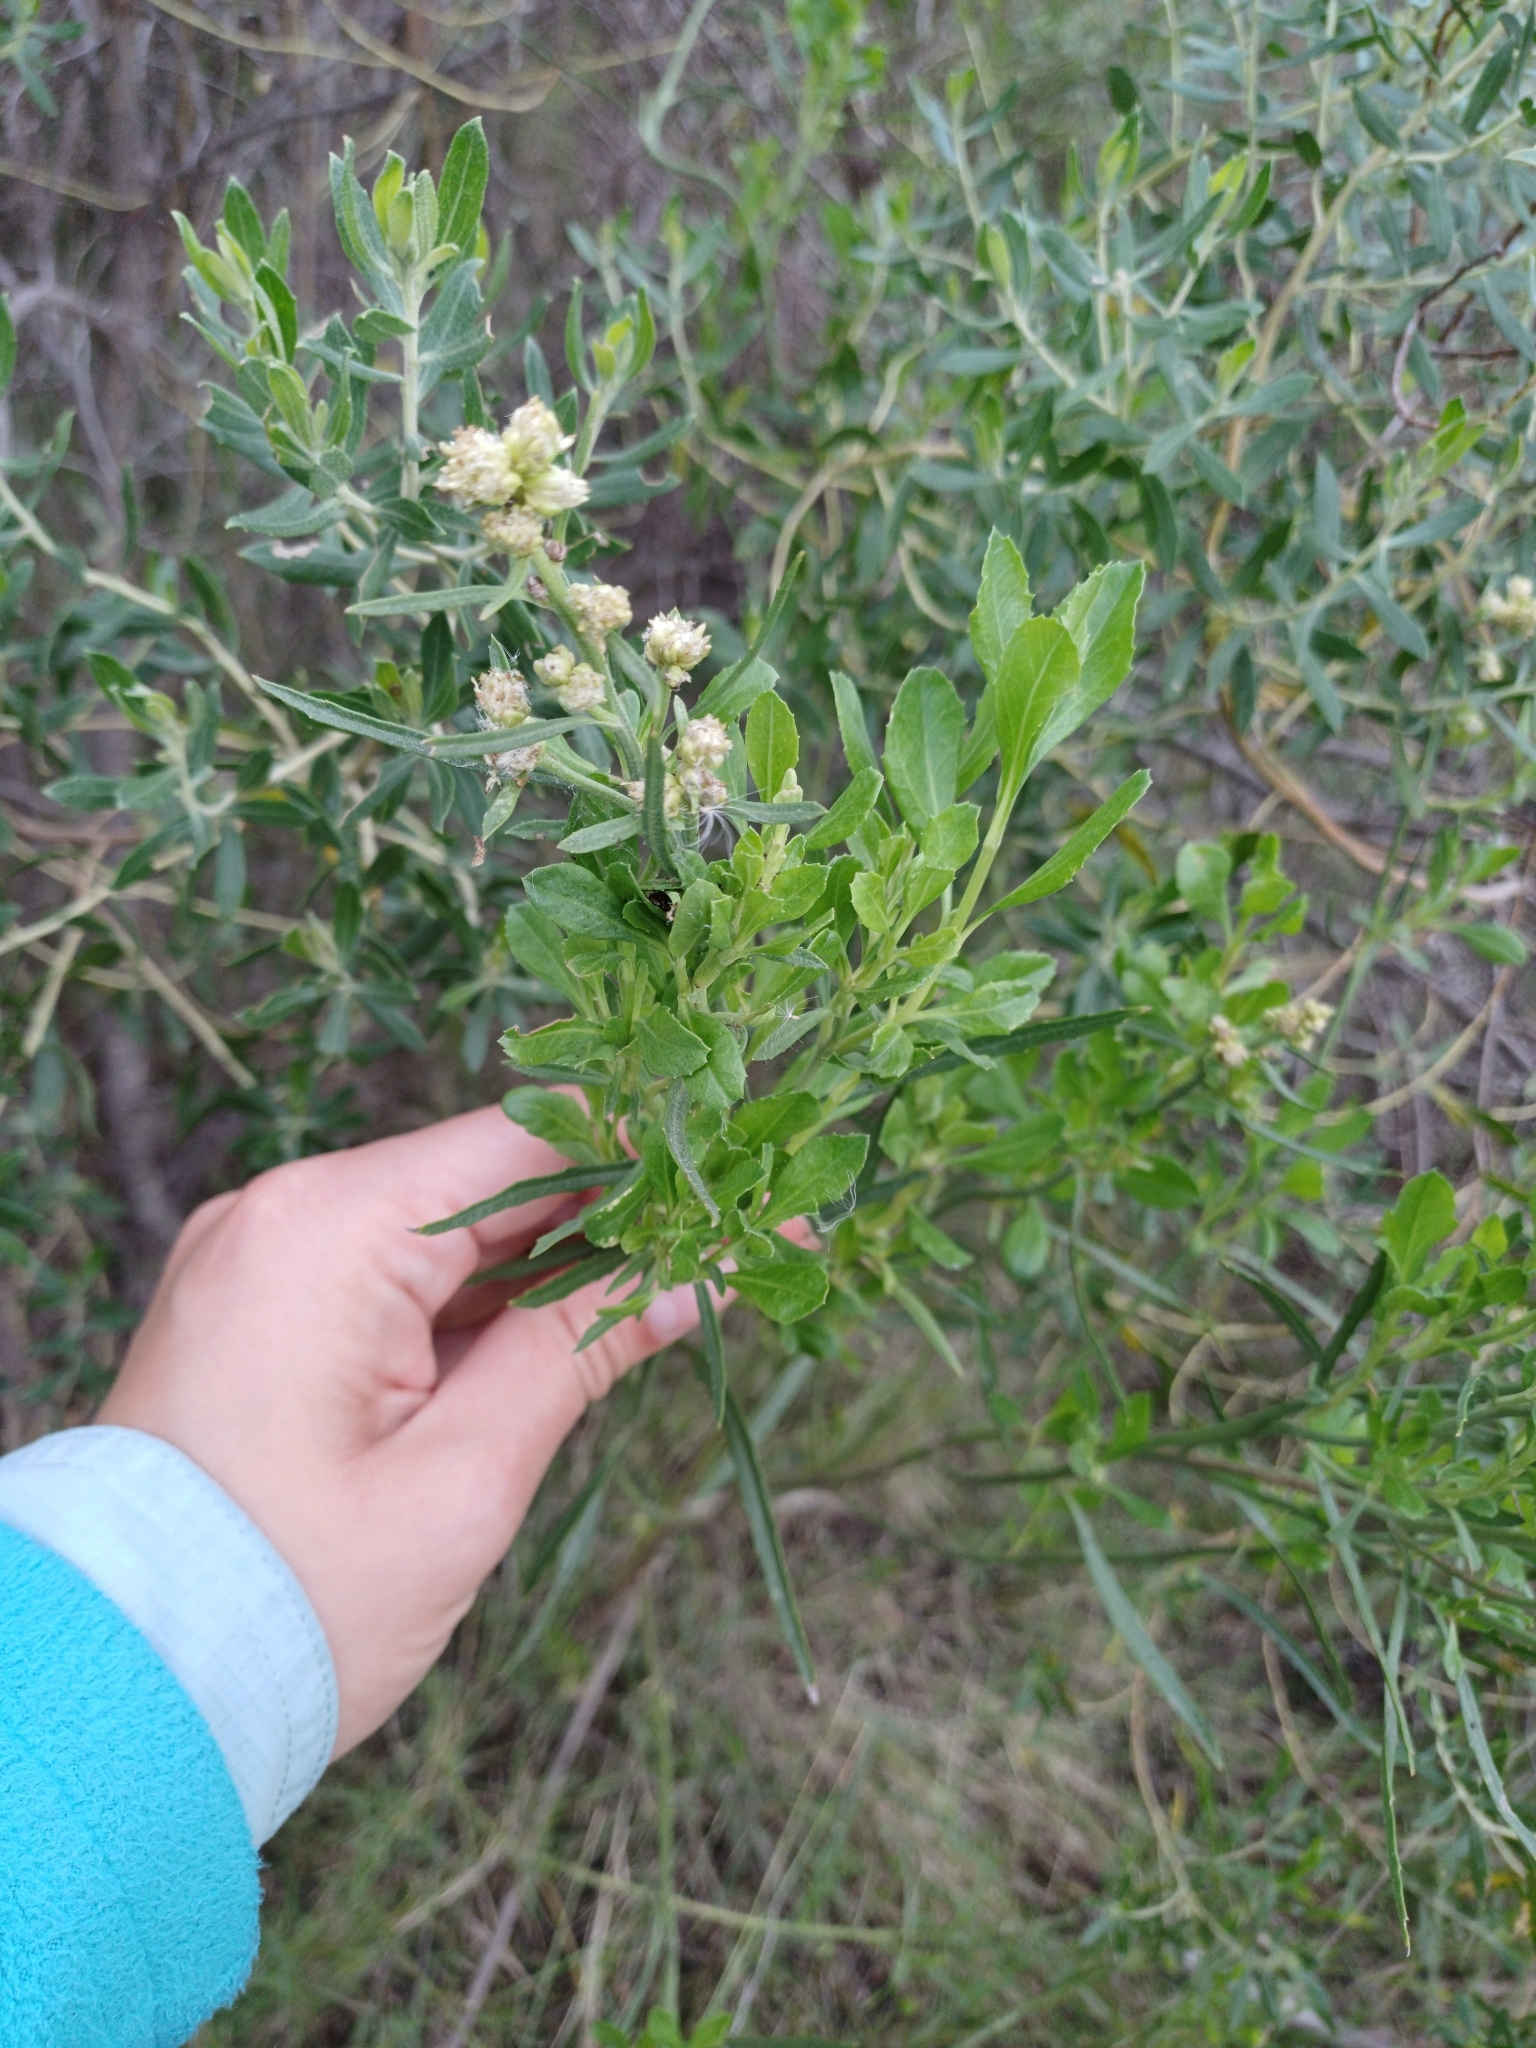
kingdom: Plantae
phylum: Tracheophyta
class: Magnoliopsida
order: Asterales
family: Asteraceae
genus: Baccharis
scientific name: Baccharis spicata
